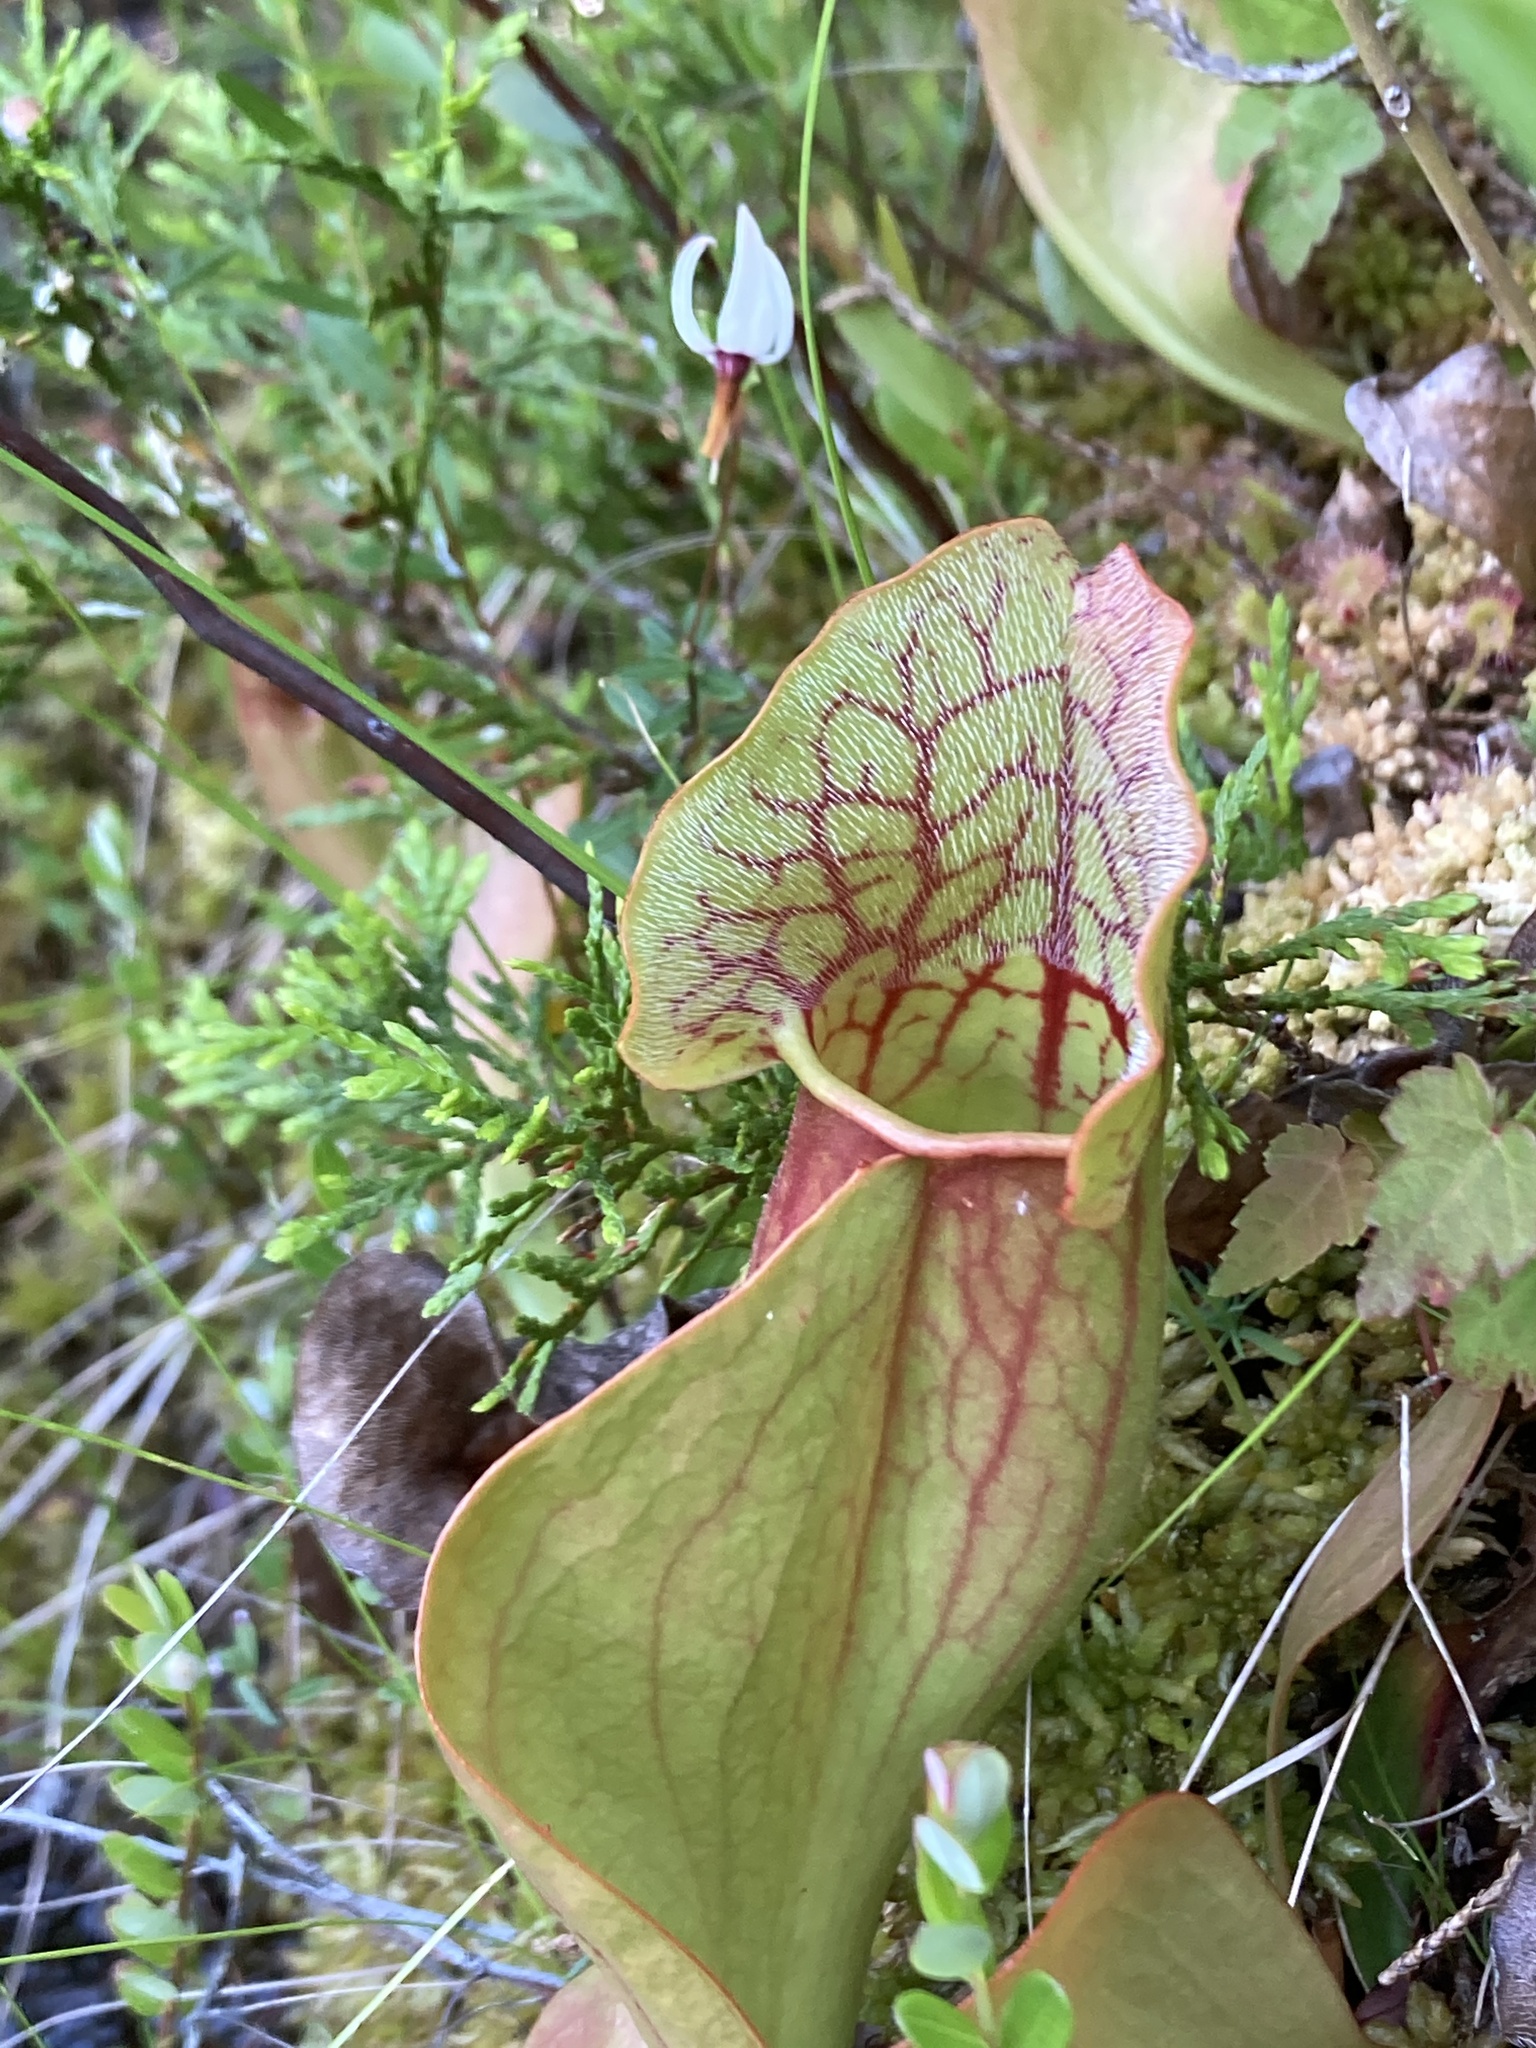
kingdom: Plantae
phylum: Tracheophyta
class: Magnoliopsida
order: Ericales
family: Sarraceniaceae
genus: Sarracenia
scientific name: Sarracenia purpurea
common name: Pitcherplant
